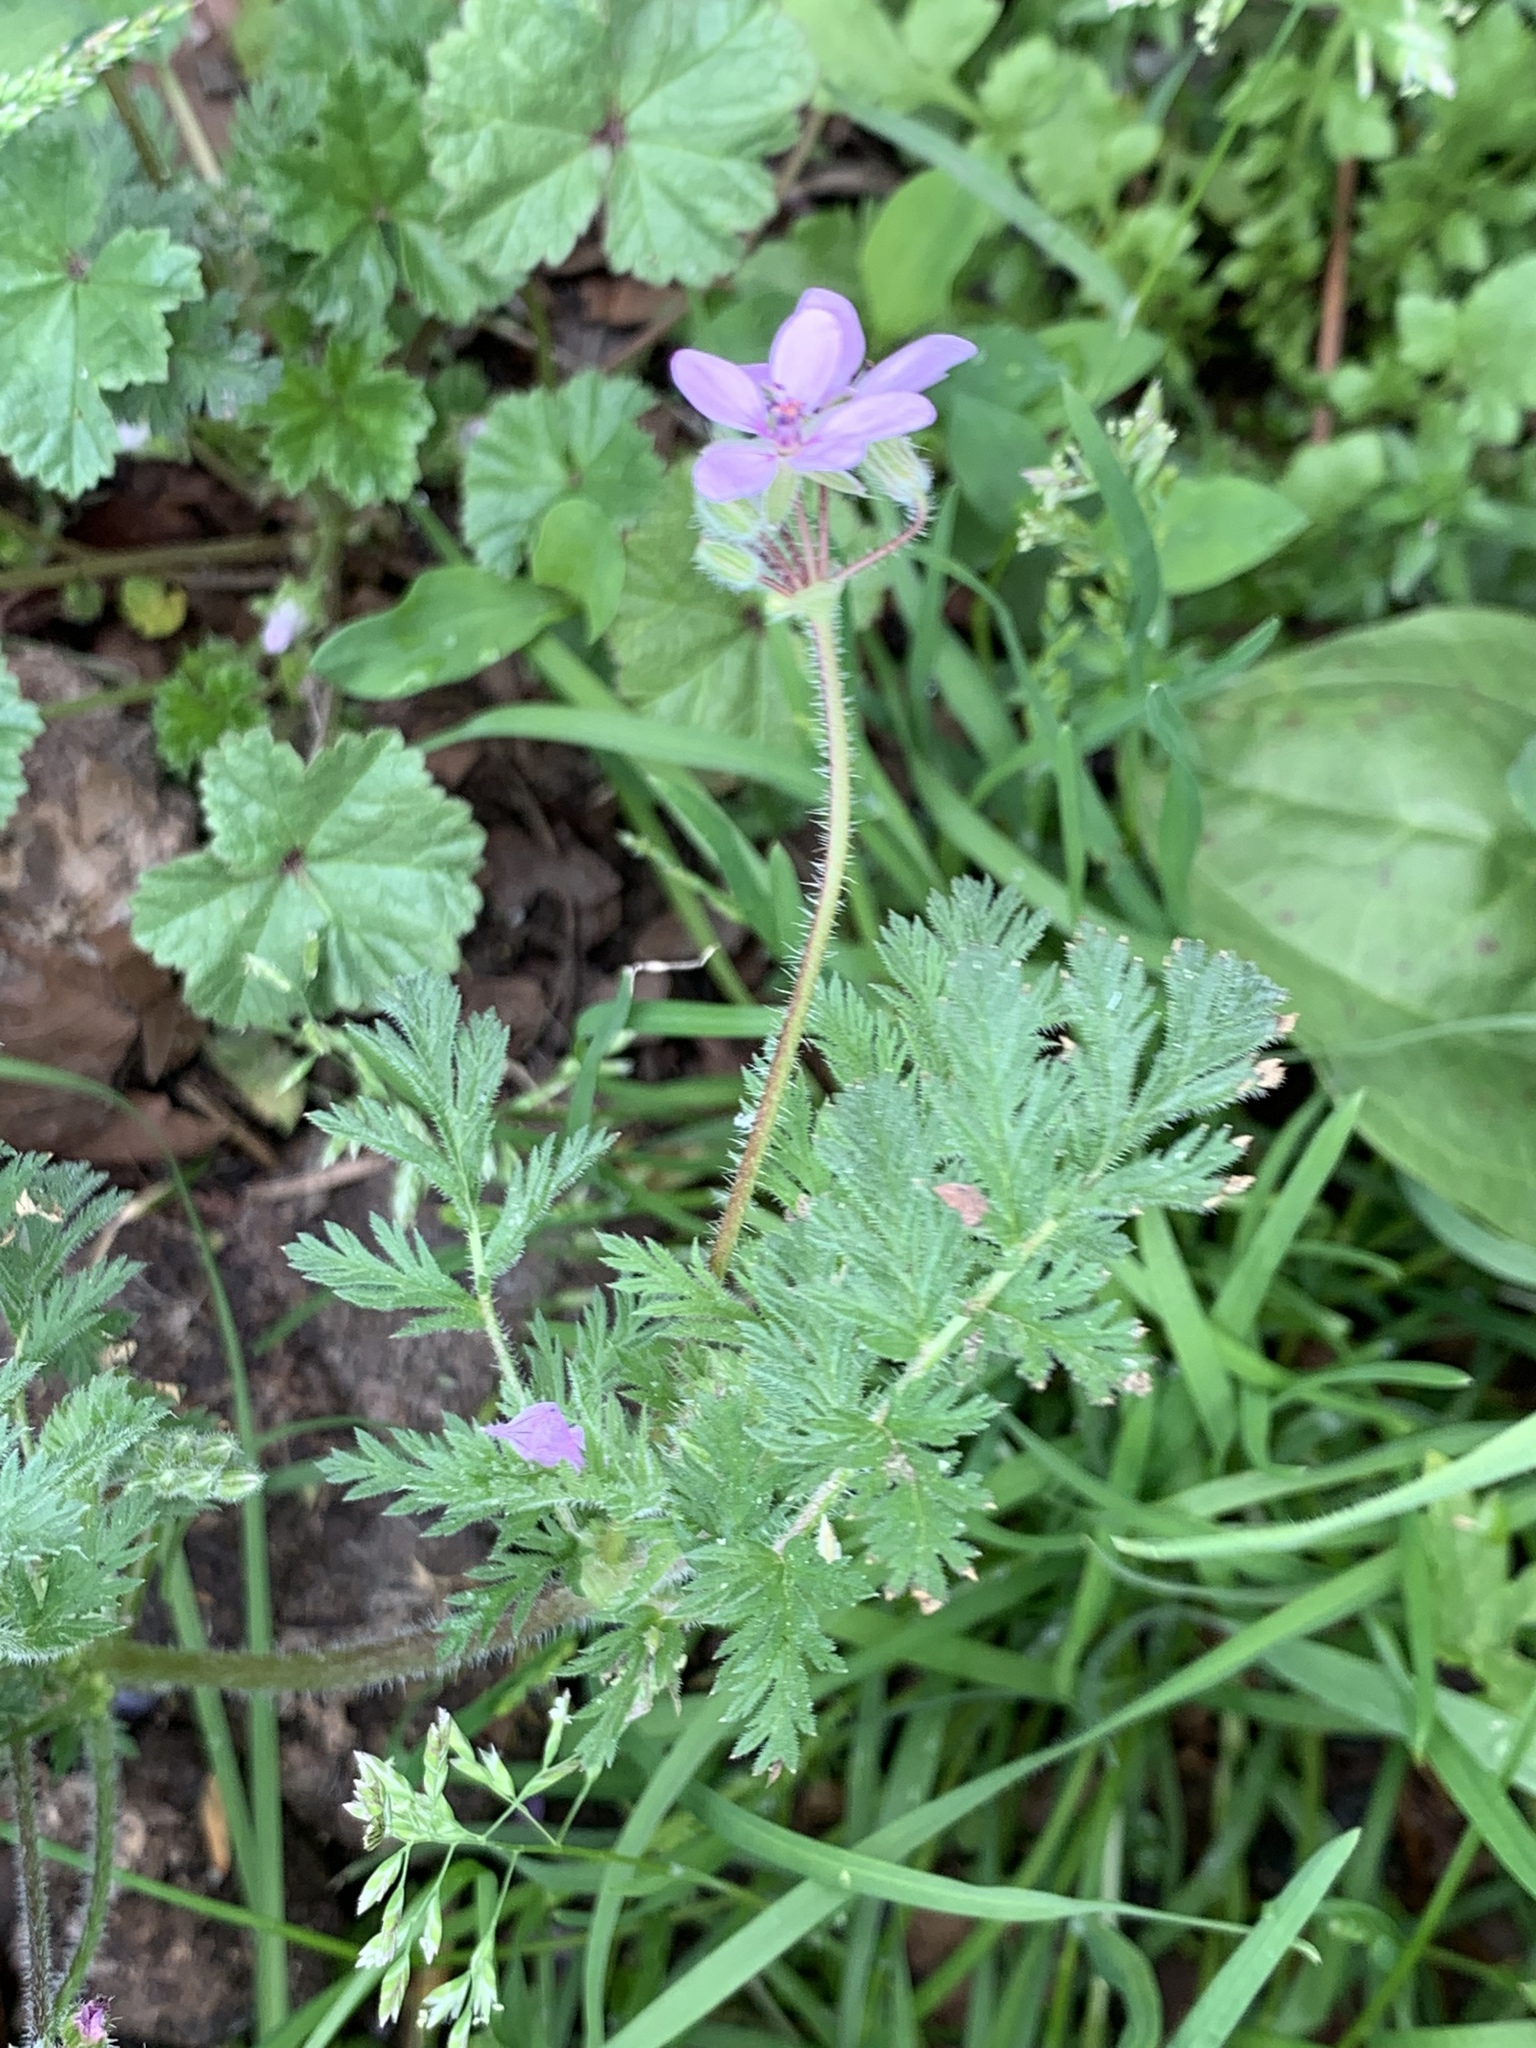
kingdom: Plantae
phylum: Tracheophyta
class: Magnoliopsida
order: Geraniales
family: Geraniaceae
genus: Erodium
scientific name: Erodium cicutarium
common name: Common stork's-bill
